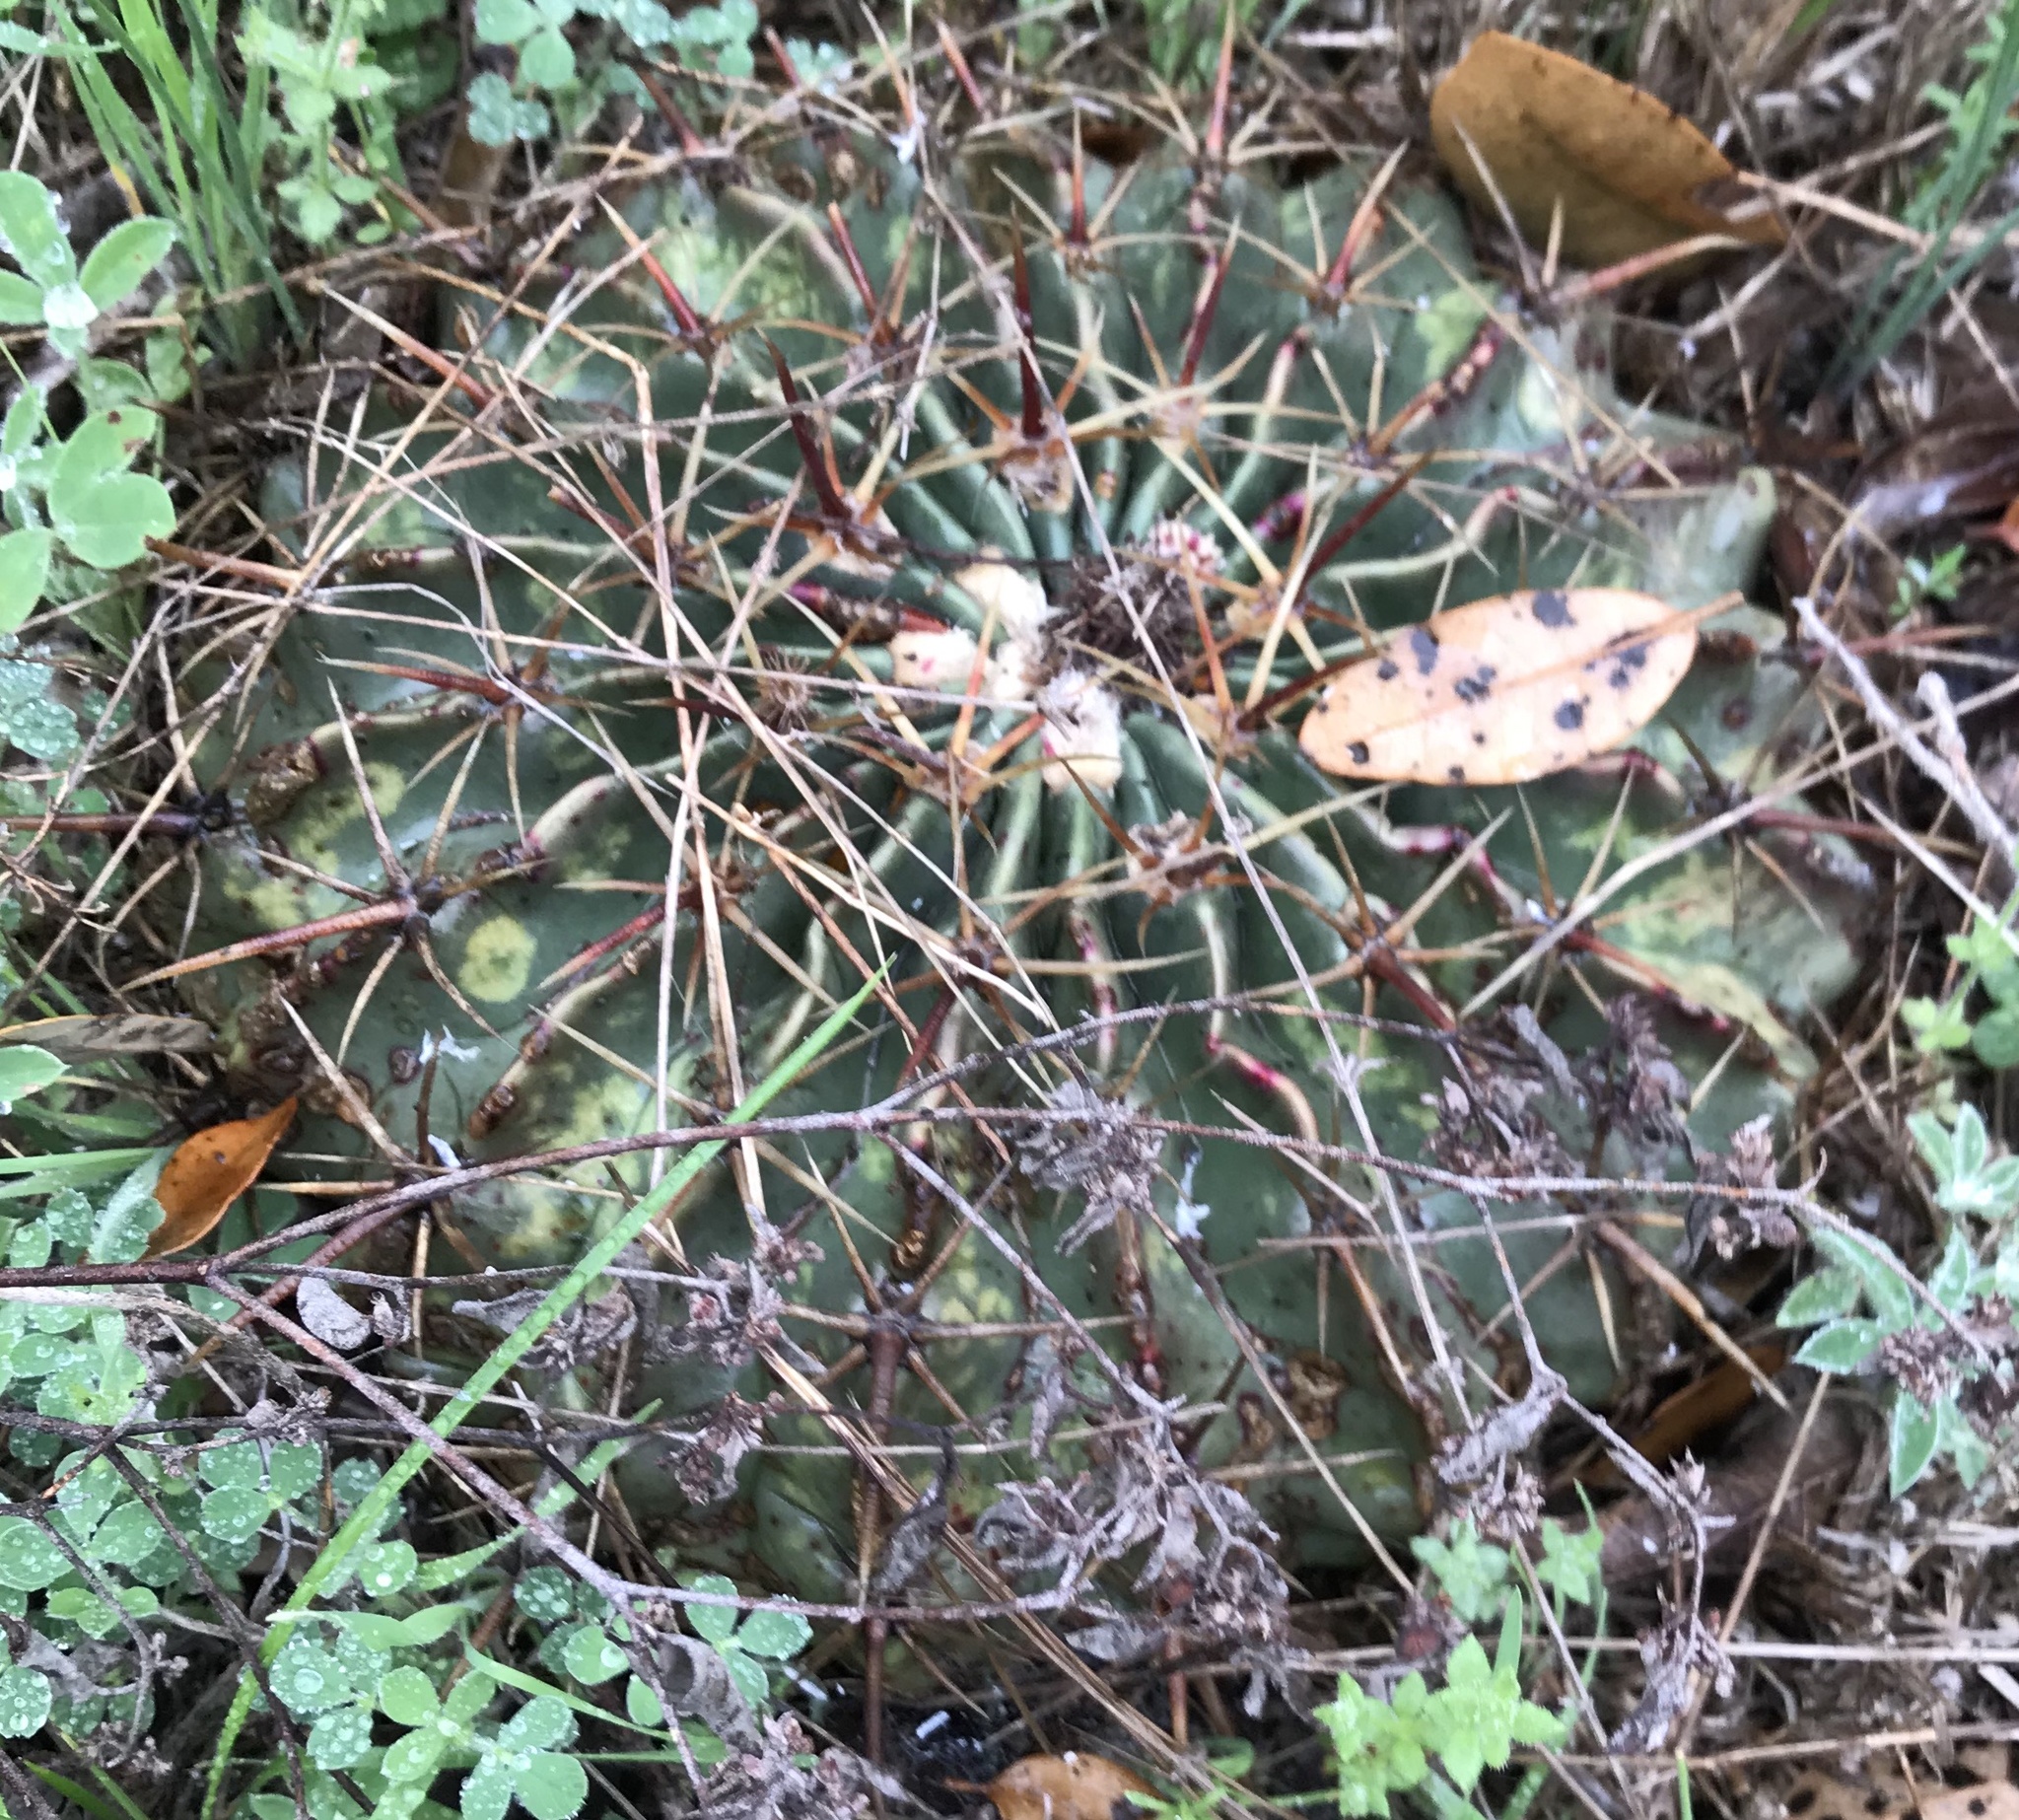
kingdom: Plantae
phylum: Tracheophyta
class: Magnoliopsida
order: Caryophyllales
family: Cactaceae
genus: Echinocactus
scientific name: Echinocactus texensis
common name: Devil's pincushion
